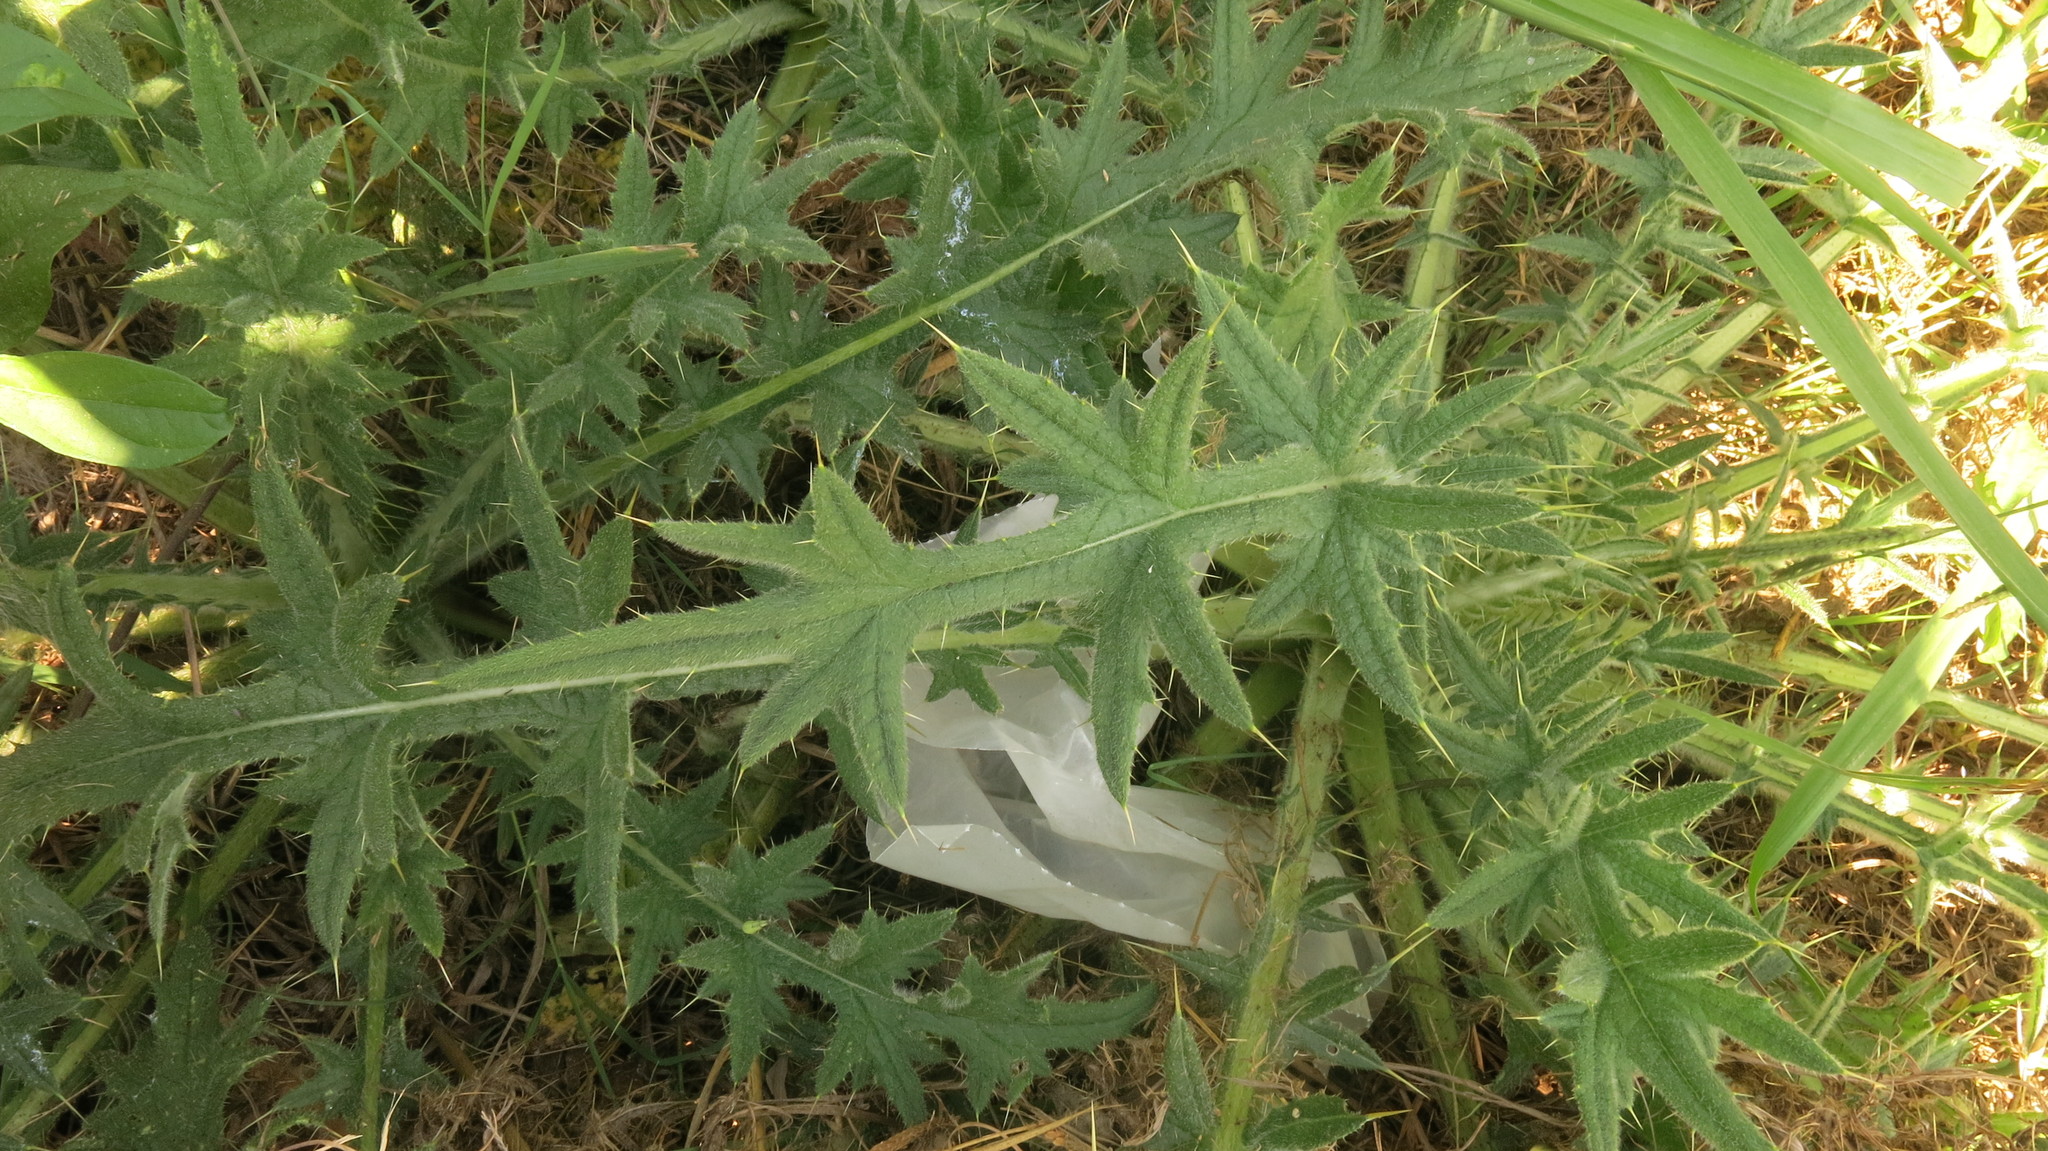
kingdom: Plantae
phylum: Tracheophyta
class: Magnoliopsida
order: Asterales
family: Asteraceae
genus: Cirsium
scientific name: Cirsium vulgare
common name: Bull thistle
